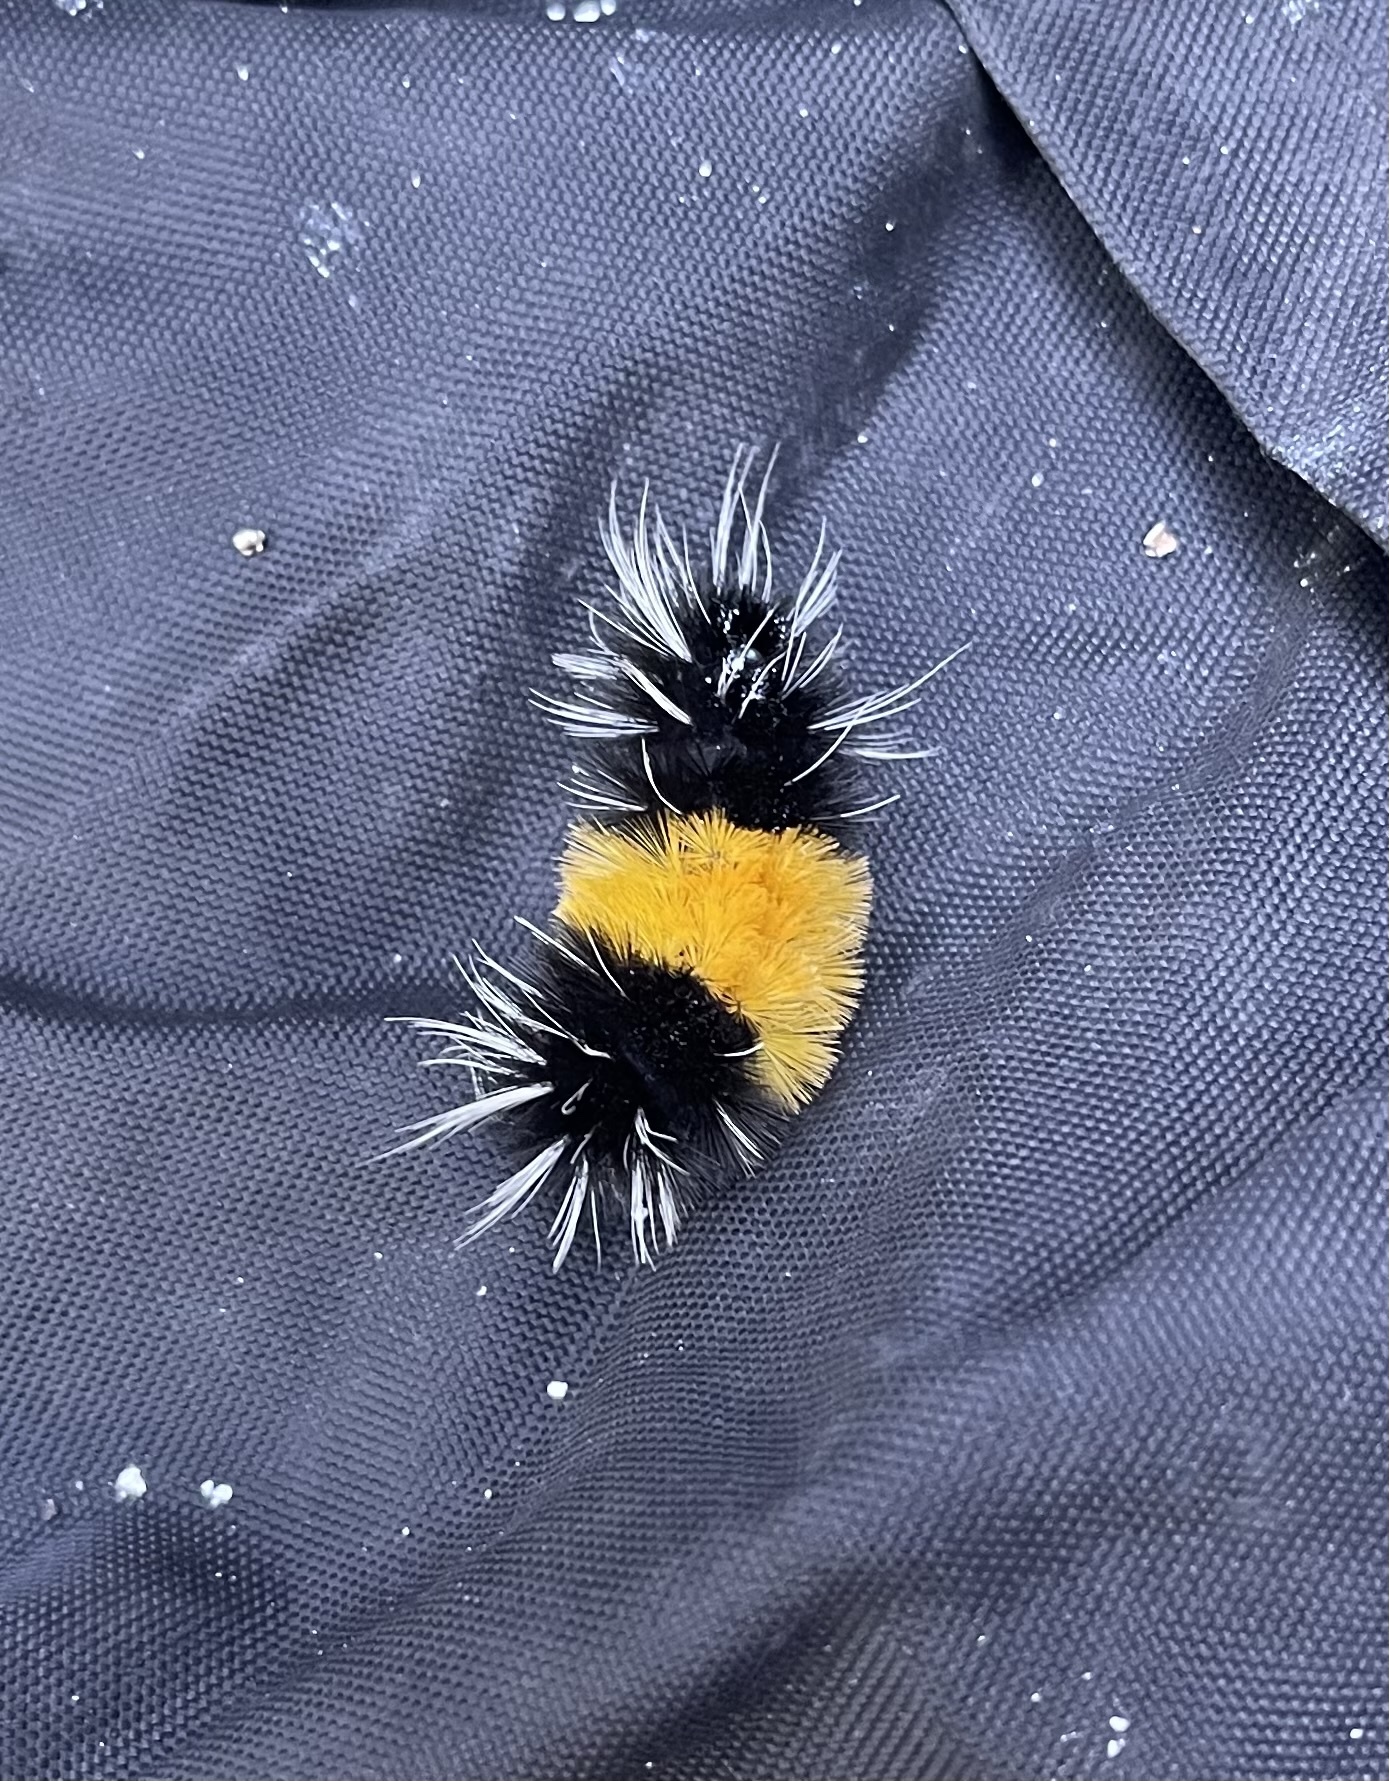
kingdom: Animalia
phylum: Arthropoda
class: Insecta
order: Lepidoptera
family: Erebidae
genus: Lophocampa
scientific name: Lophocampa maculata
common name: Spotted tussock moth
